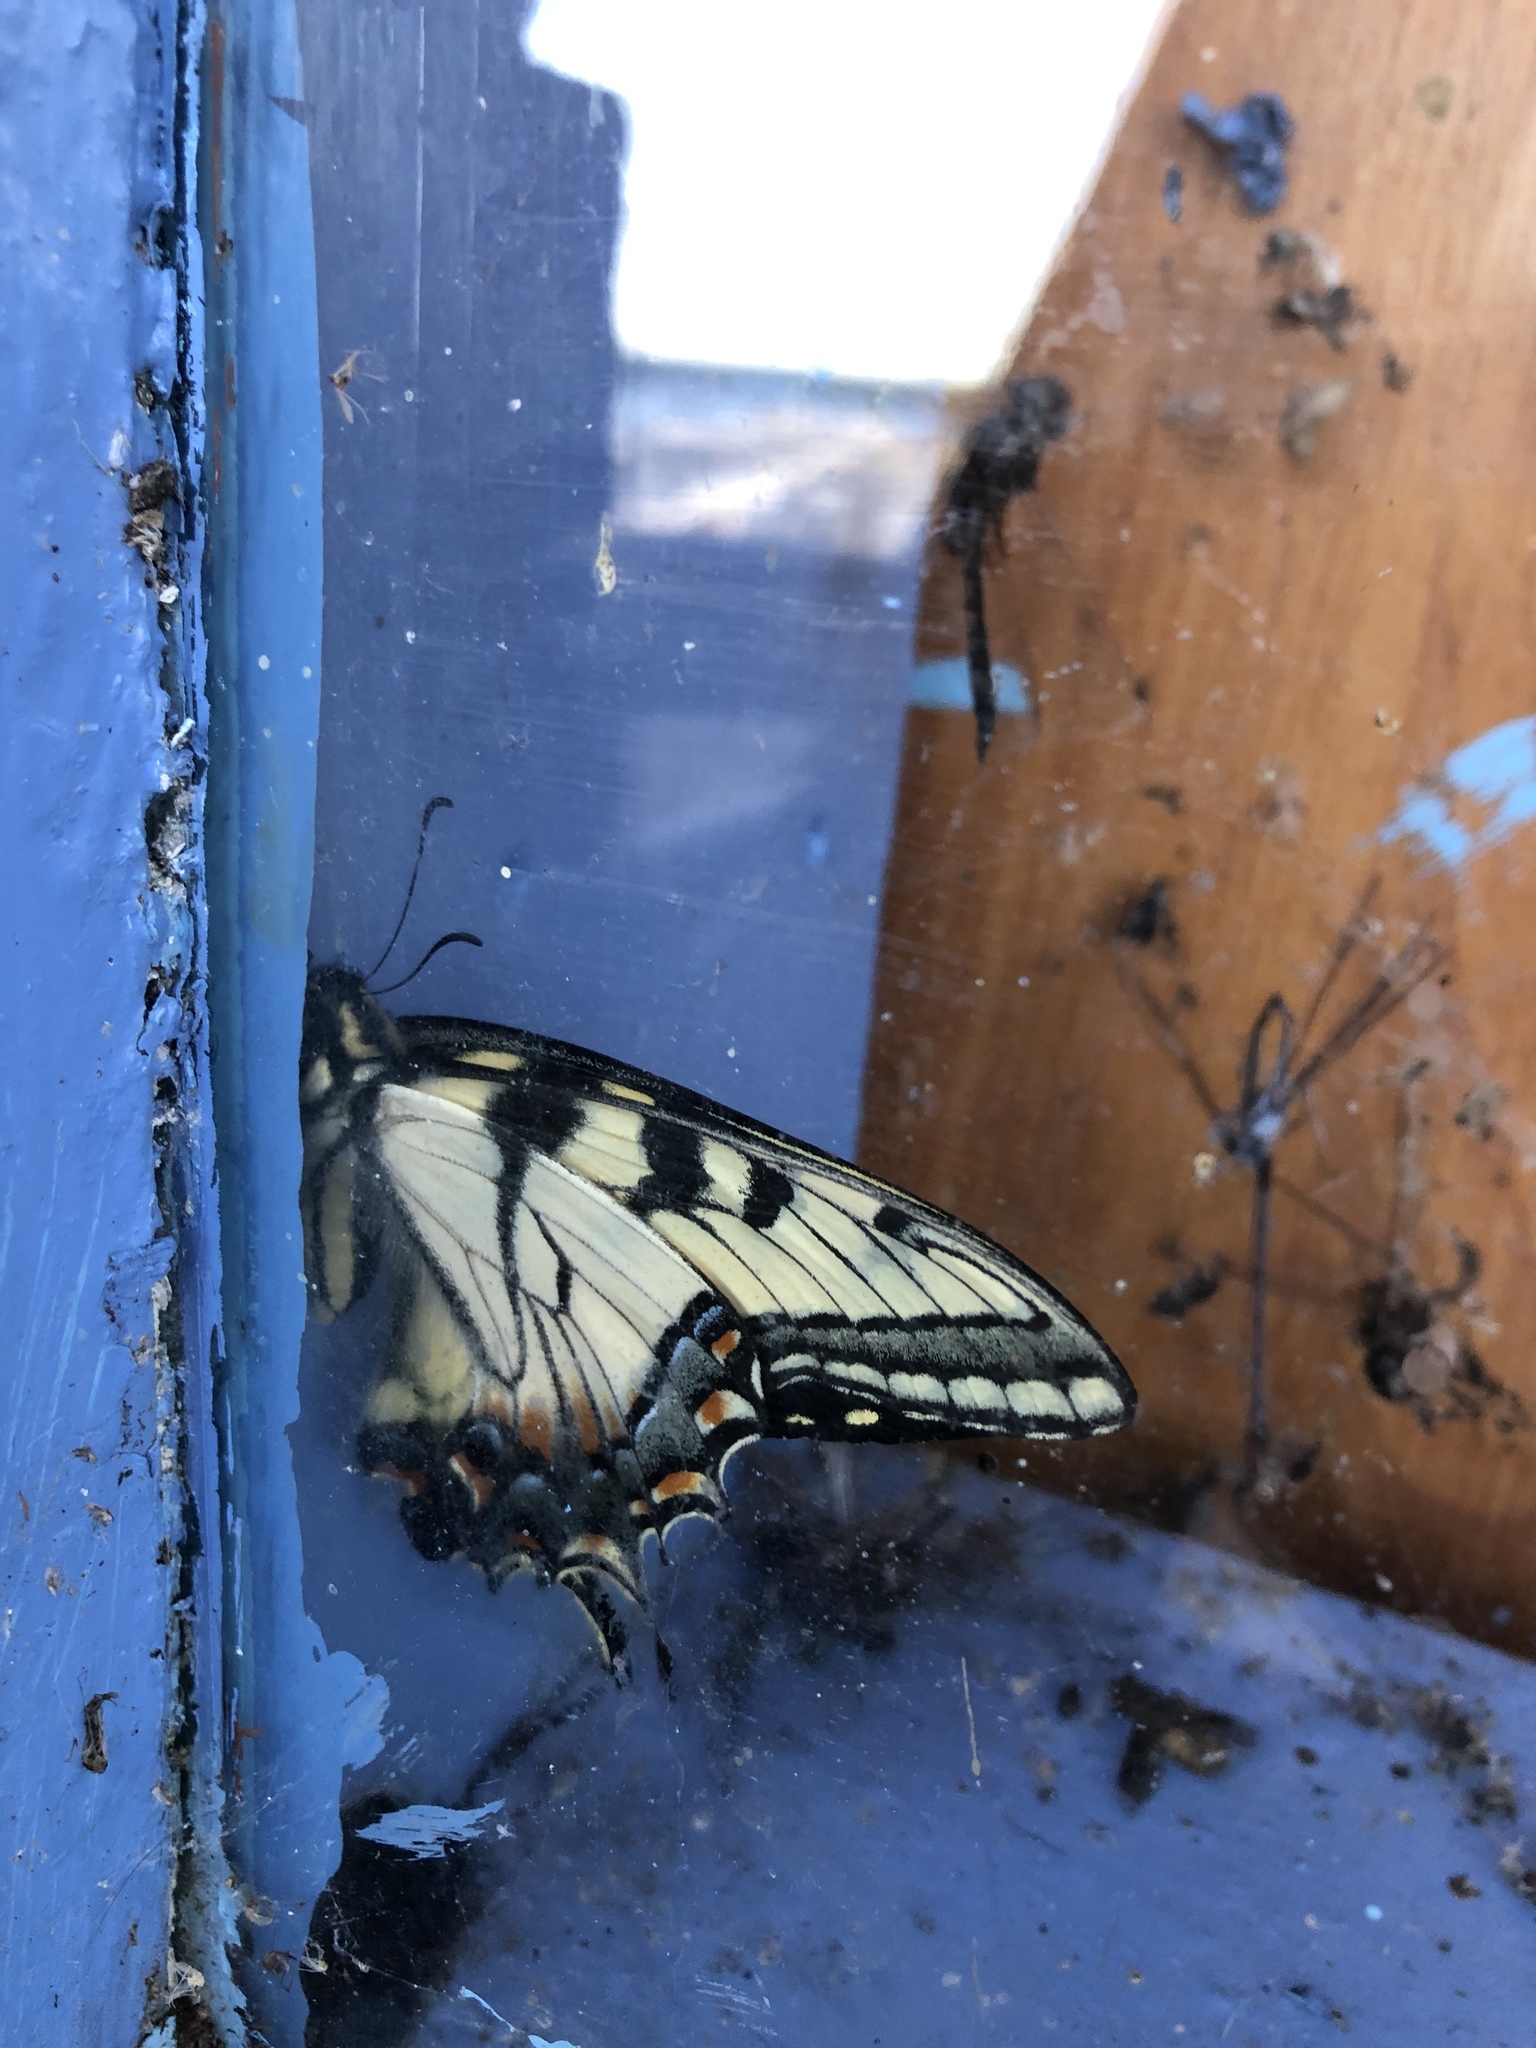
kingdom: Animalia
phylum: Arthropoda
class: Insecta
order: Lepidoptera
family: Papilionidae
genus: Papilio
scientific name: Papilio
